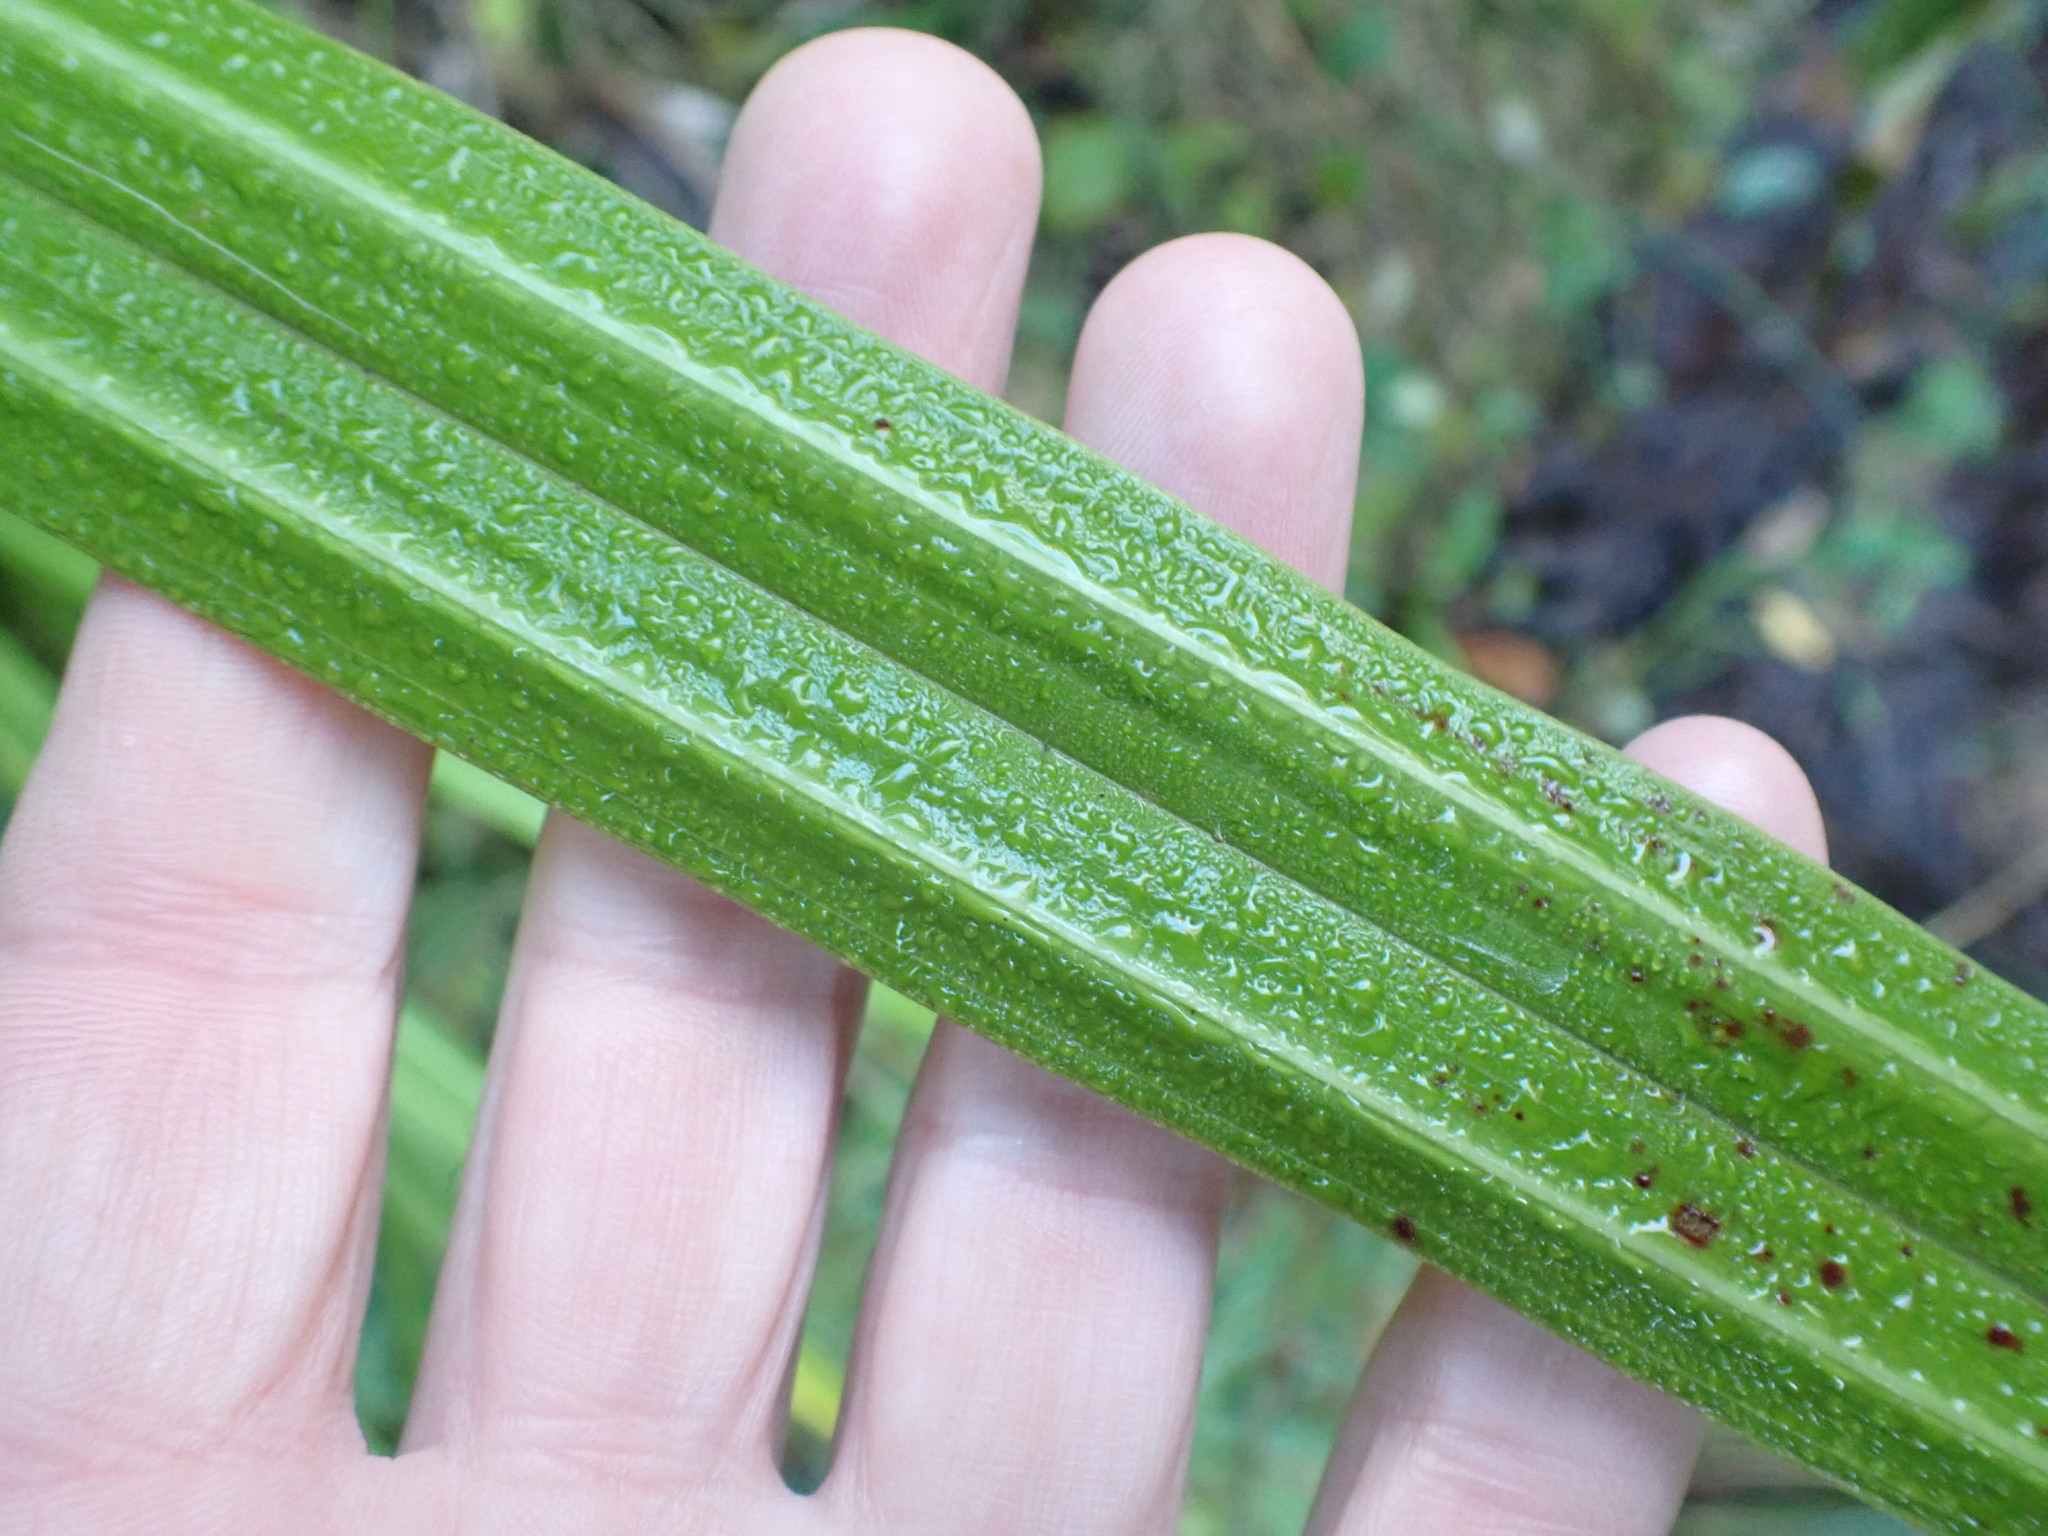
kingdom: Plantae
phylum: Tracheophyta
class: Liliopsida
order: Asparagales
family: Asteliaceae
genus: Astelia
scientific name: Astelia fragrans
